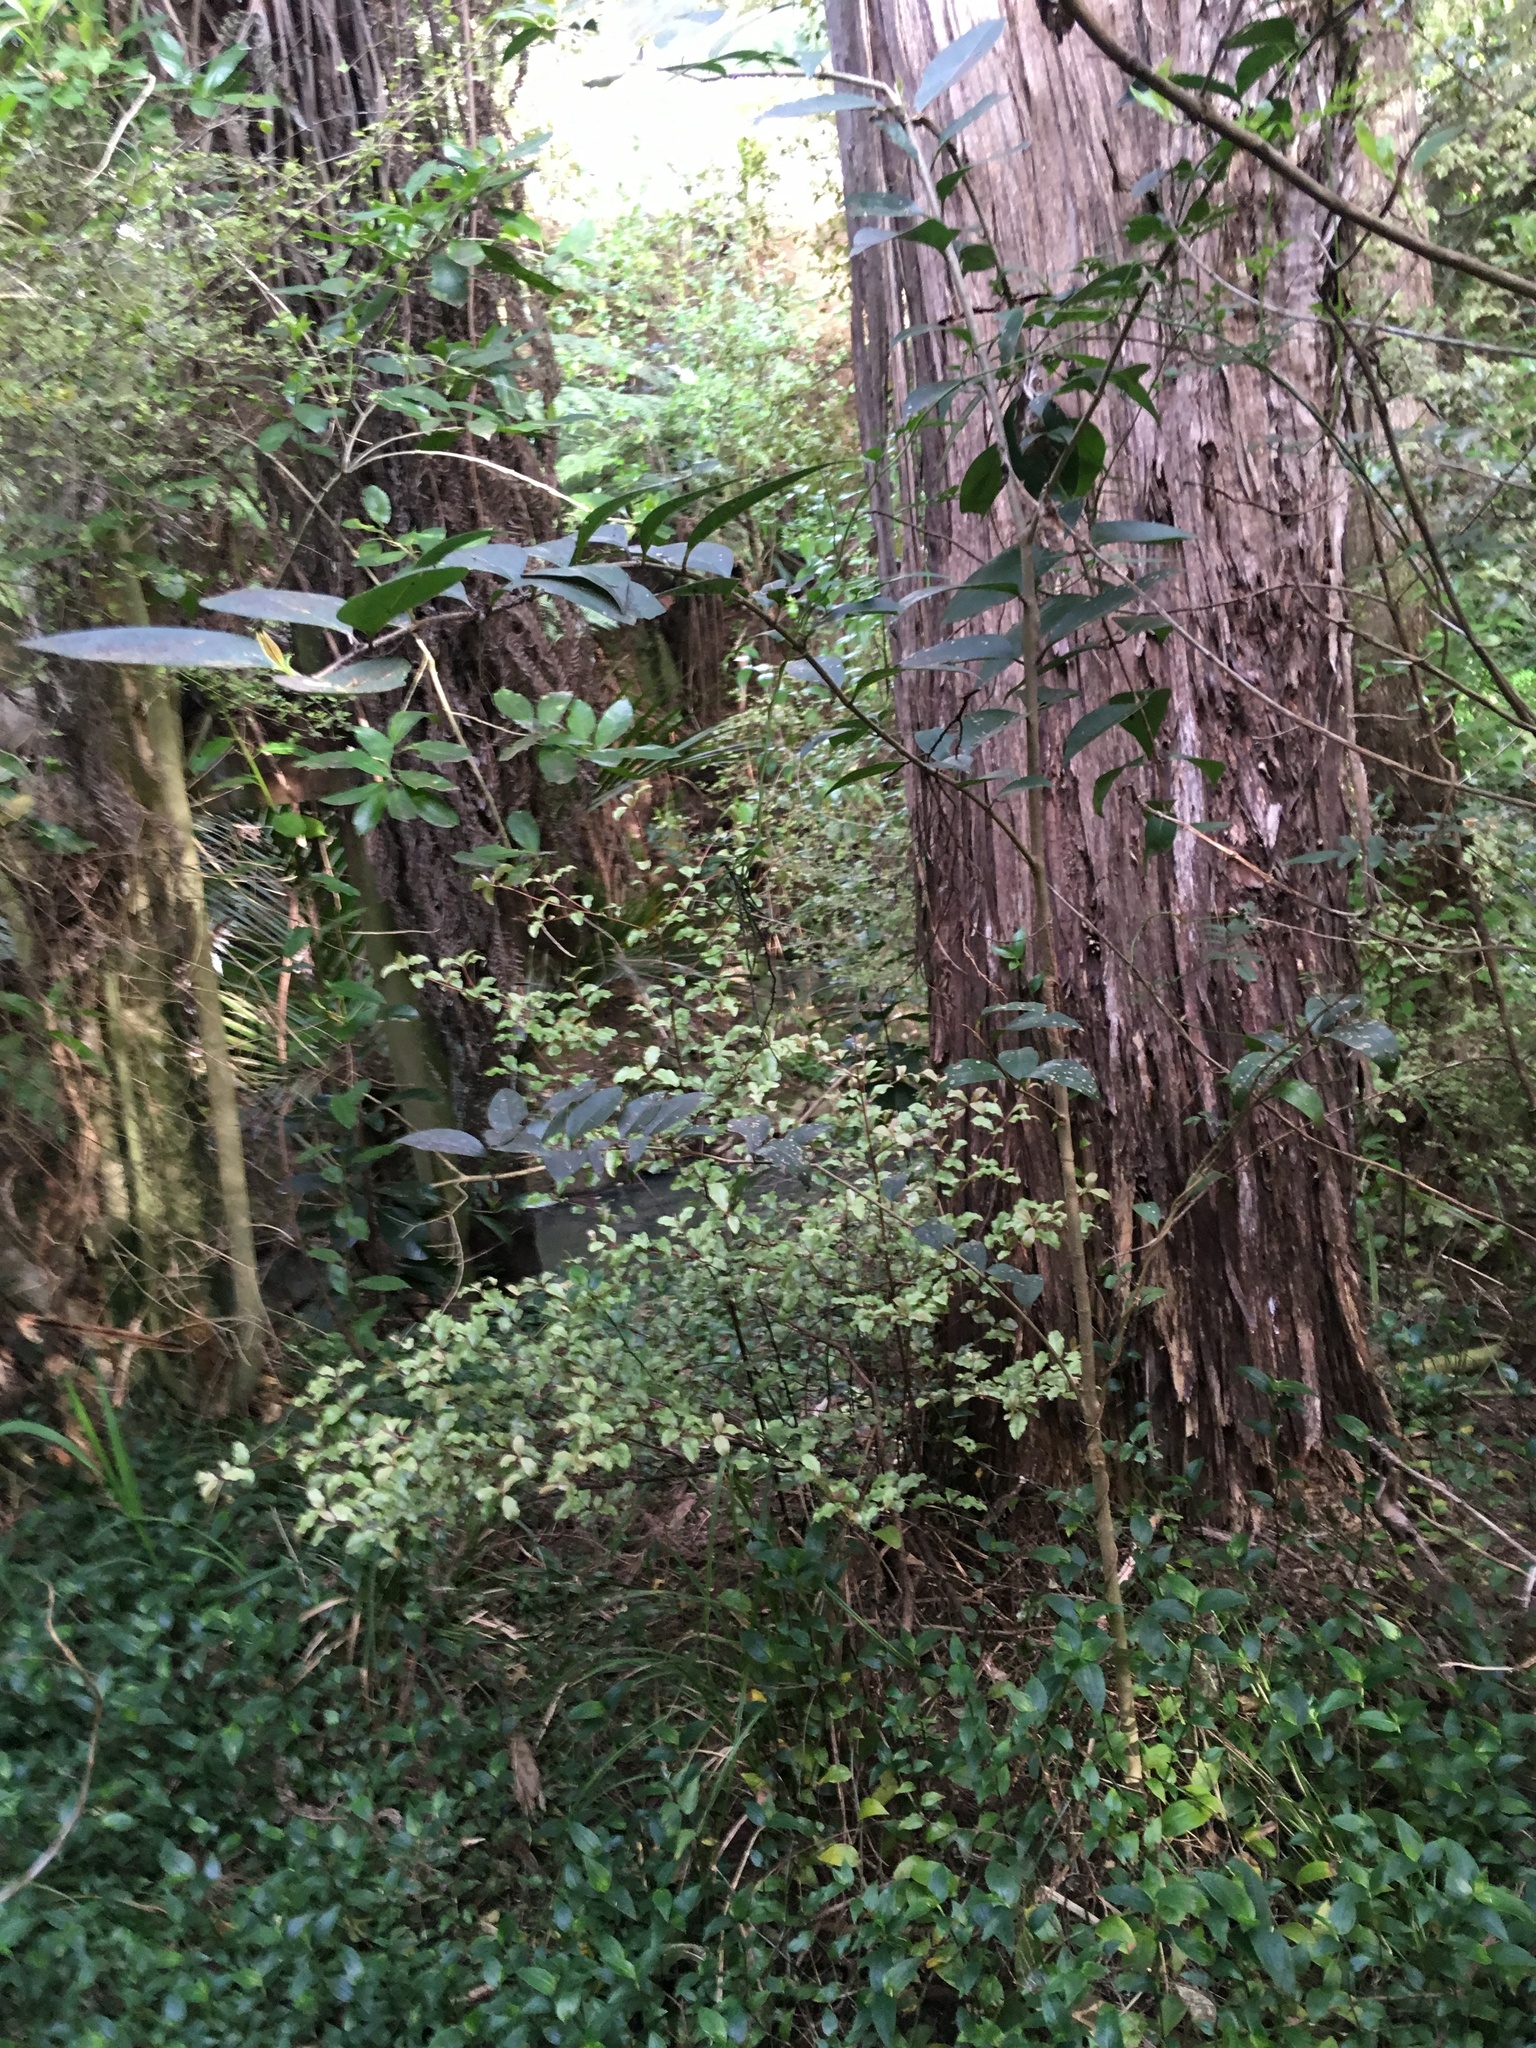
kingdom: Plantae
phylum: Tracheophyta
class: Magnoliopsida
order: Lamiales
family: Oleaceae
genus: Ligustrum
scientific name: Ligustrum lucidum
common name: Glossy privet
